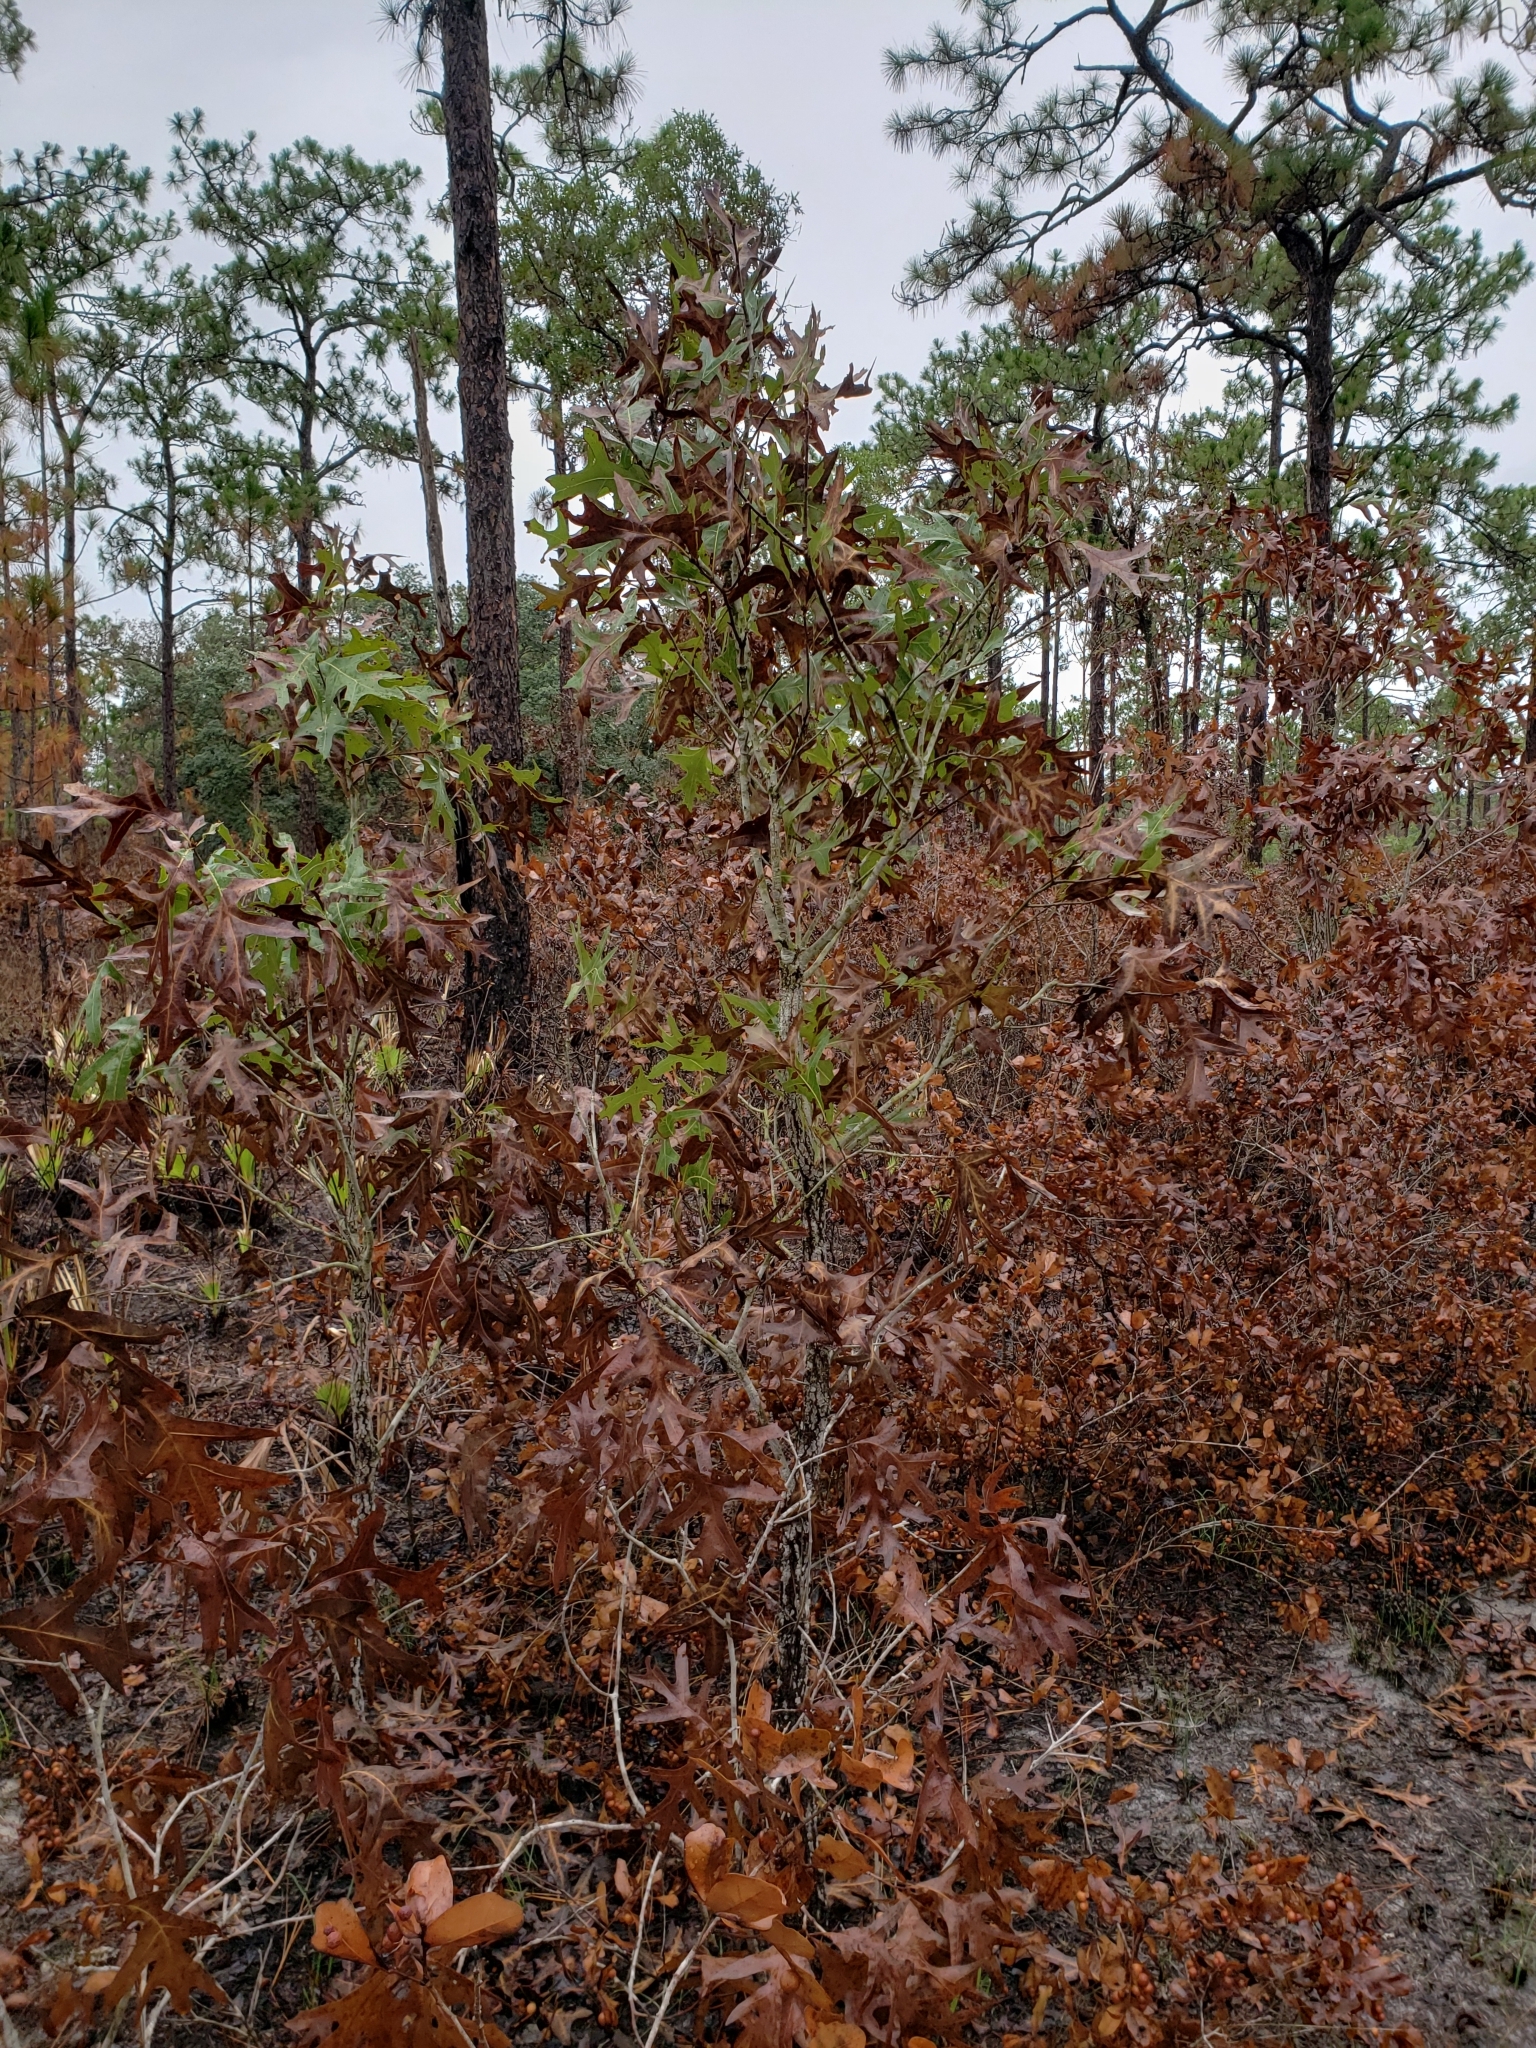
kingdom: Plantae
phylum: Tracheophyta
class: Magnoliopsida
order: Fagales
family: Fagaceae
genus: Quercus
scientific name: Quercus laevis
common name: Turkey oak
